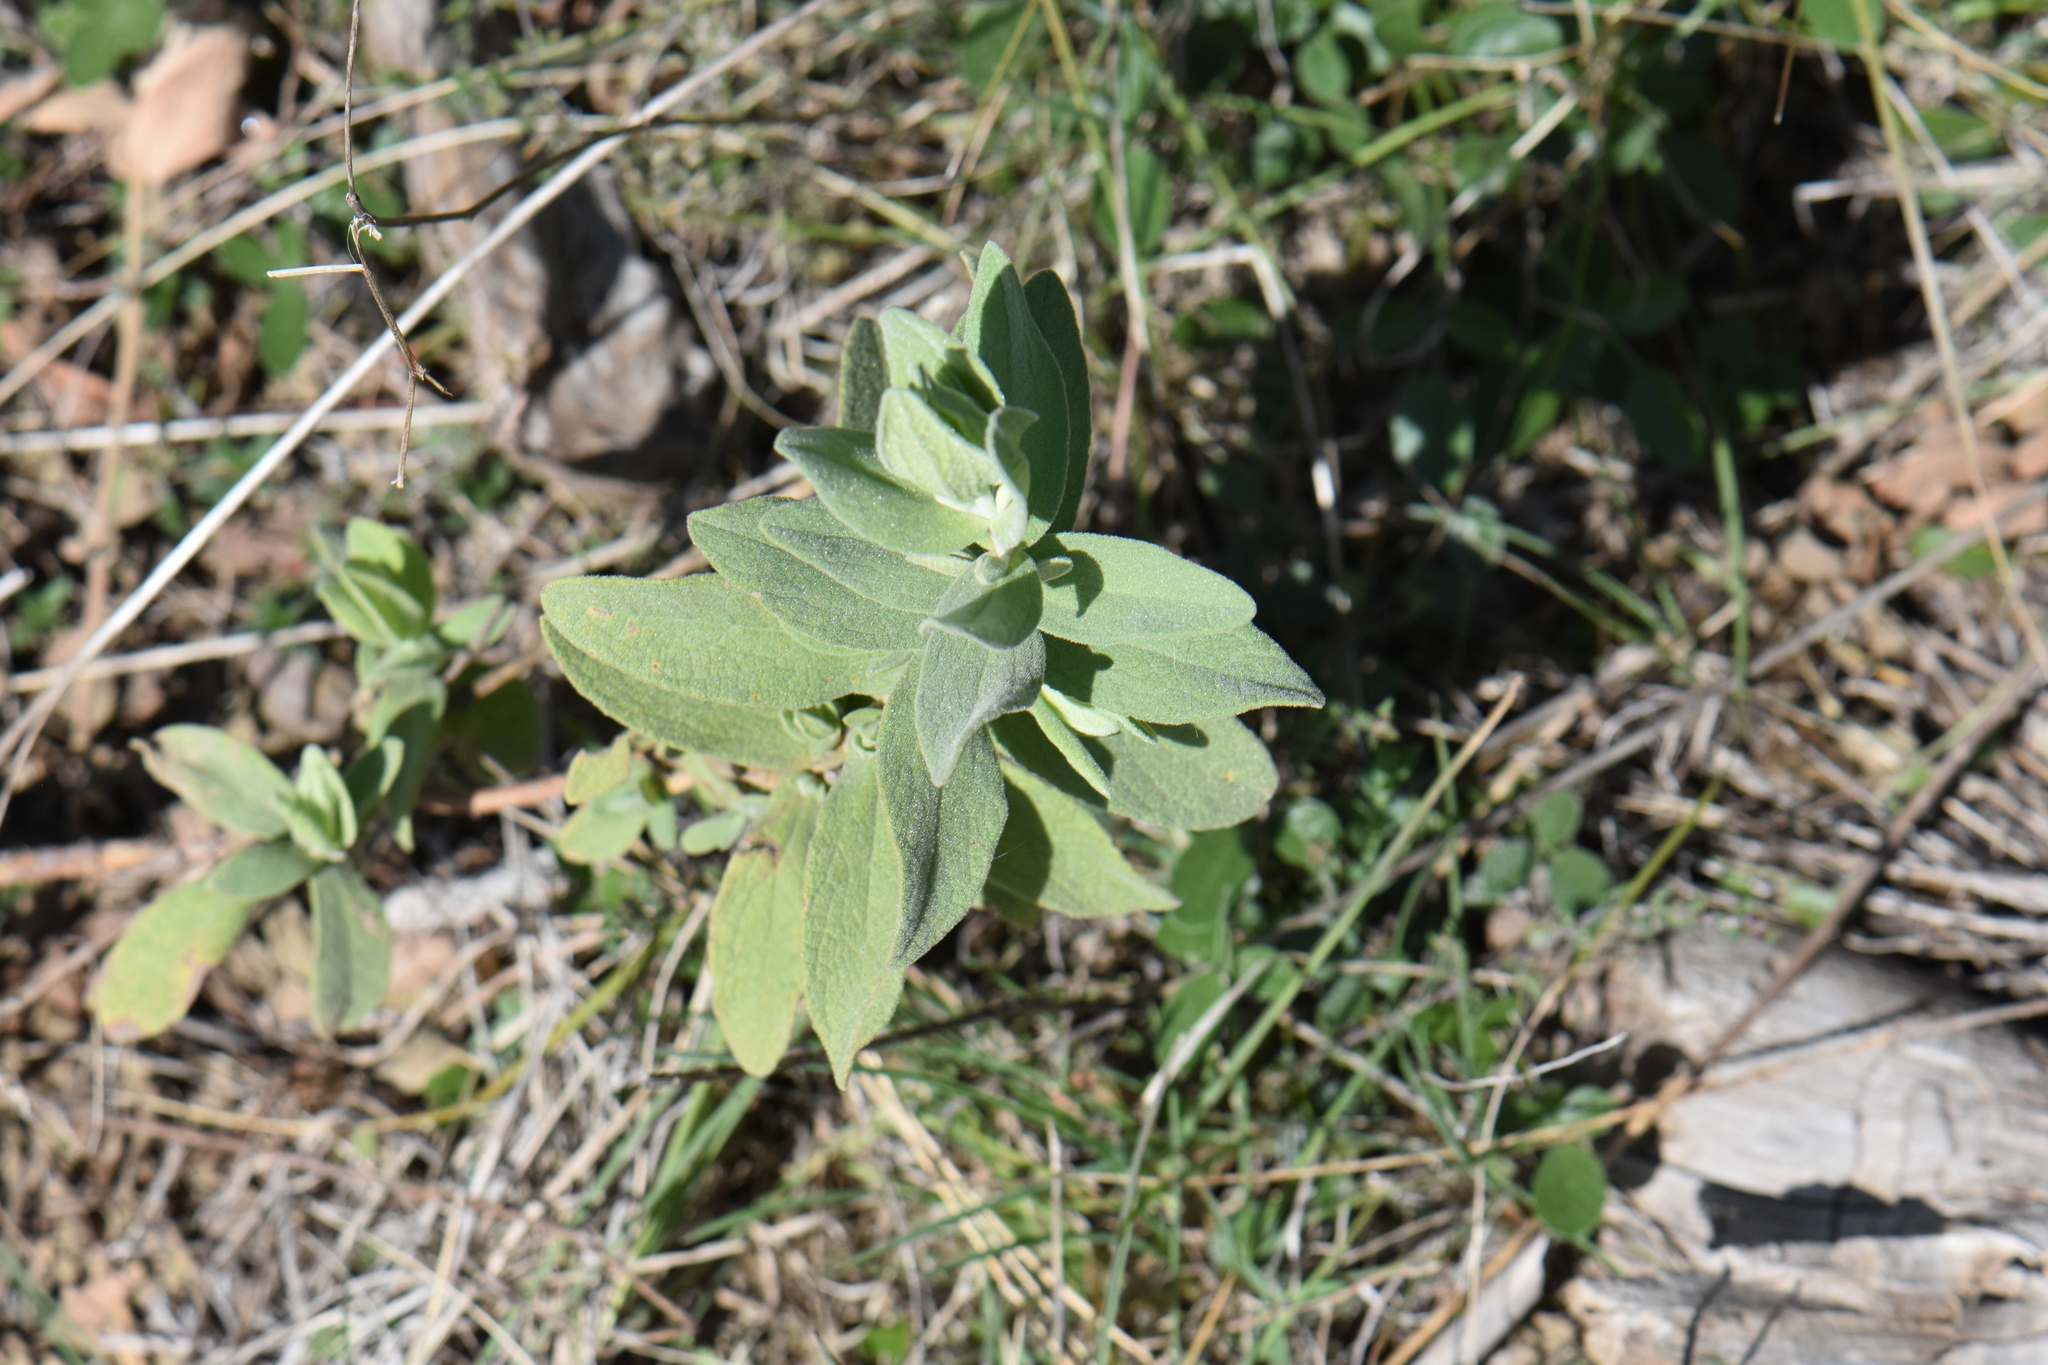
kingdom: Plantae
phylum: Tracheophyta
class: Magnoliopsida
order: Malvales
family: Cistaceae
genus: Cistus
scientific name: Cistus albidus
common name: White-leaf rock-rose
